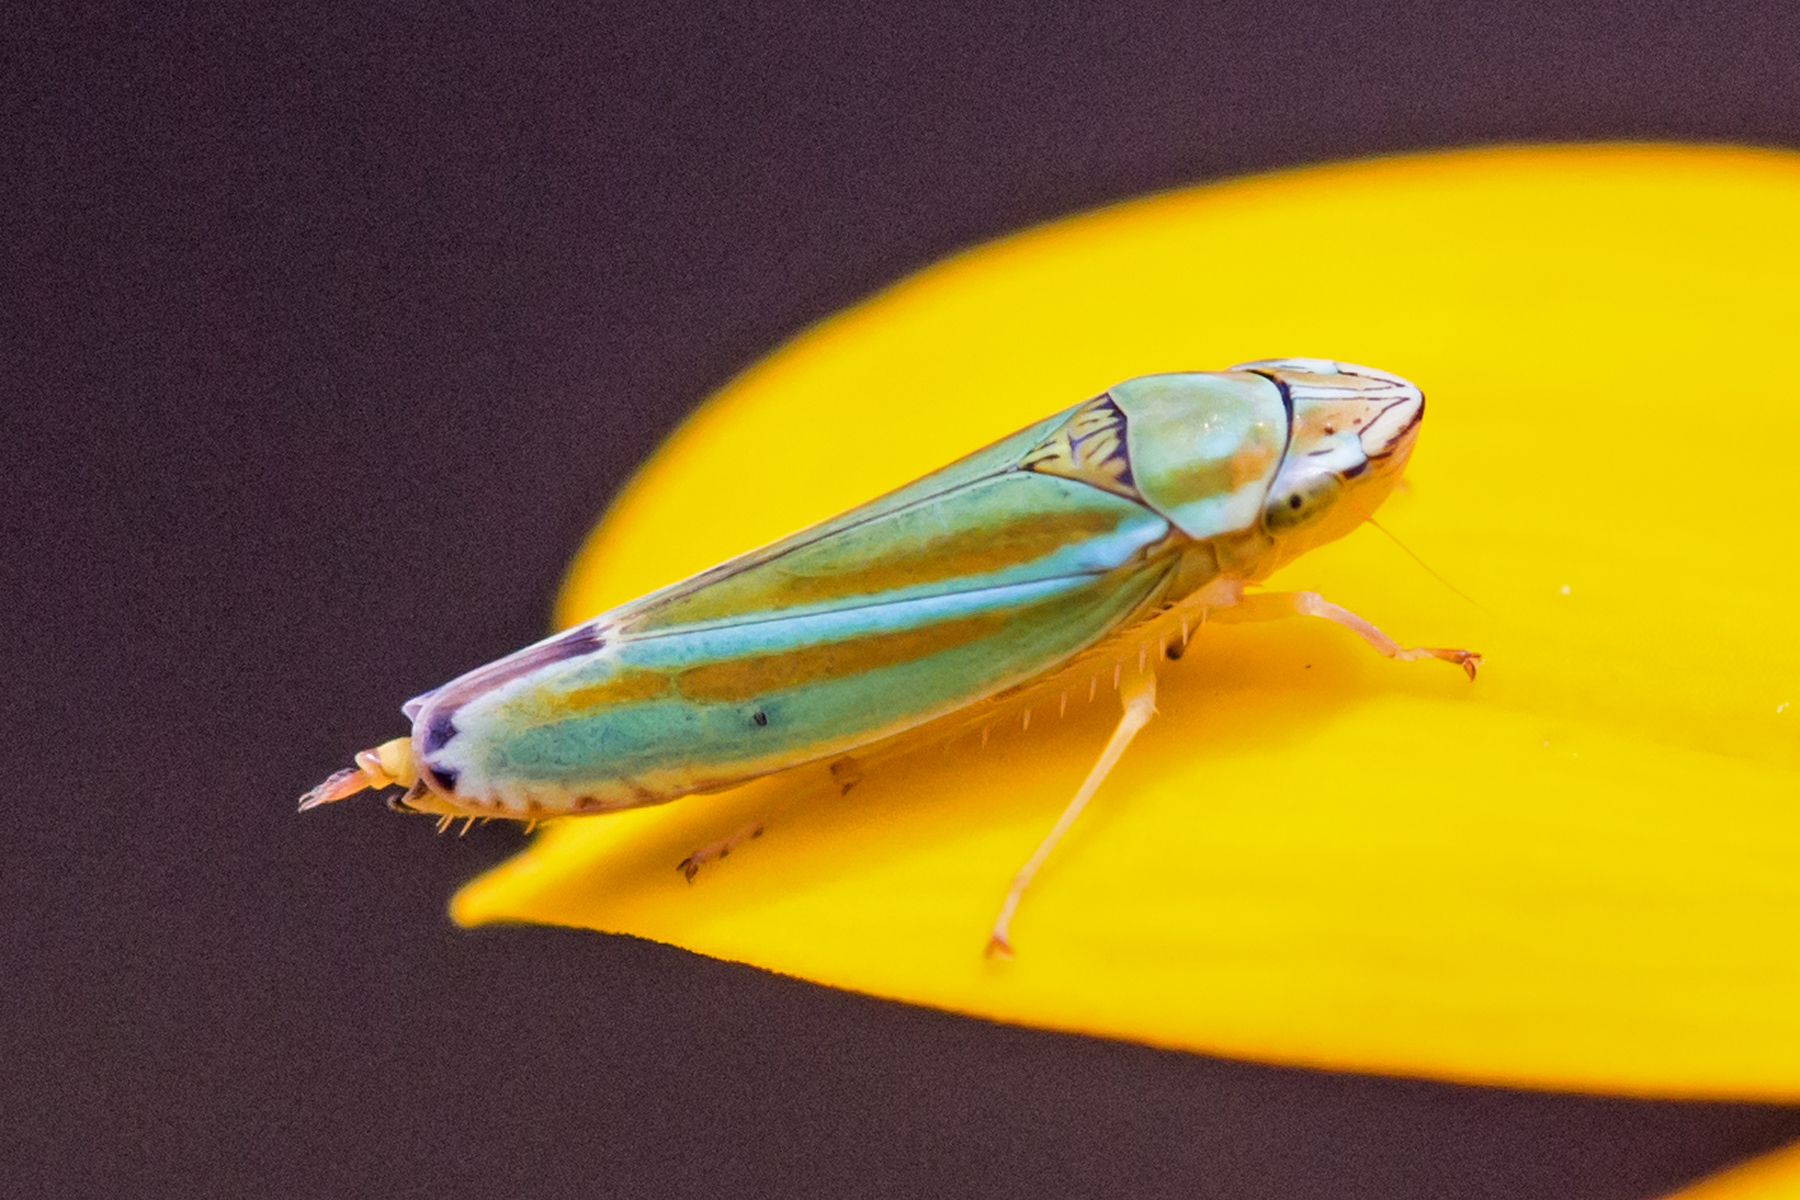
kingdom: Animalia
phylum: Arthropoda
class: Insecta
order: Hemiptera
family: Cicadellidae
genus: Graphocephala
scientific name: Graphocephala versuta
